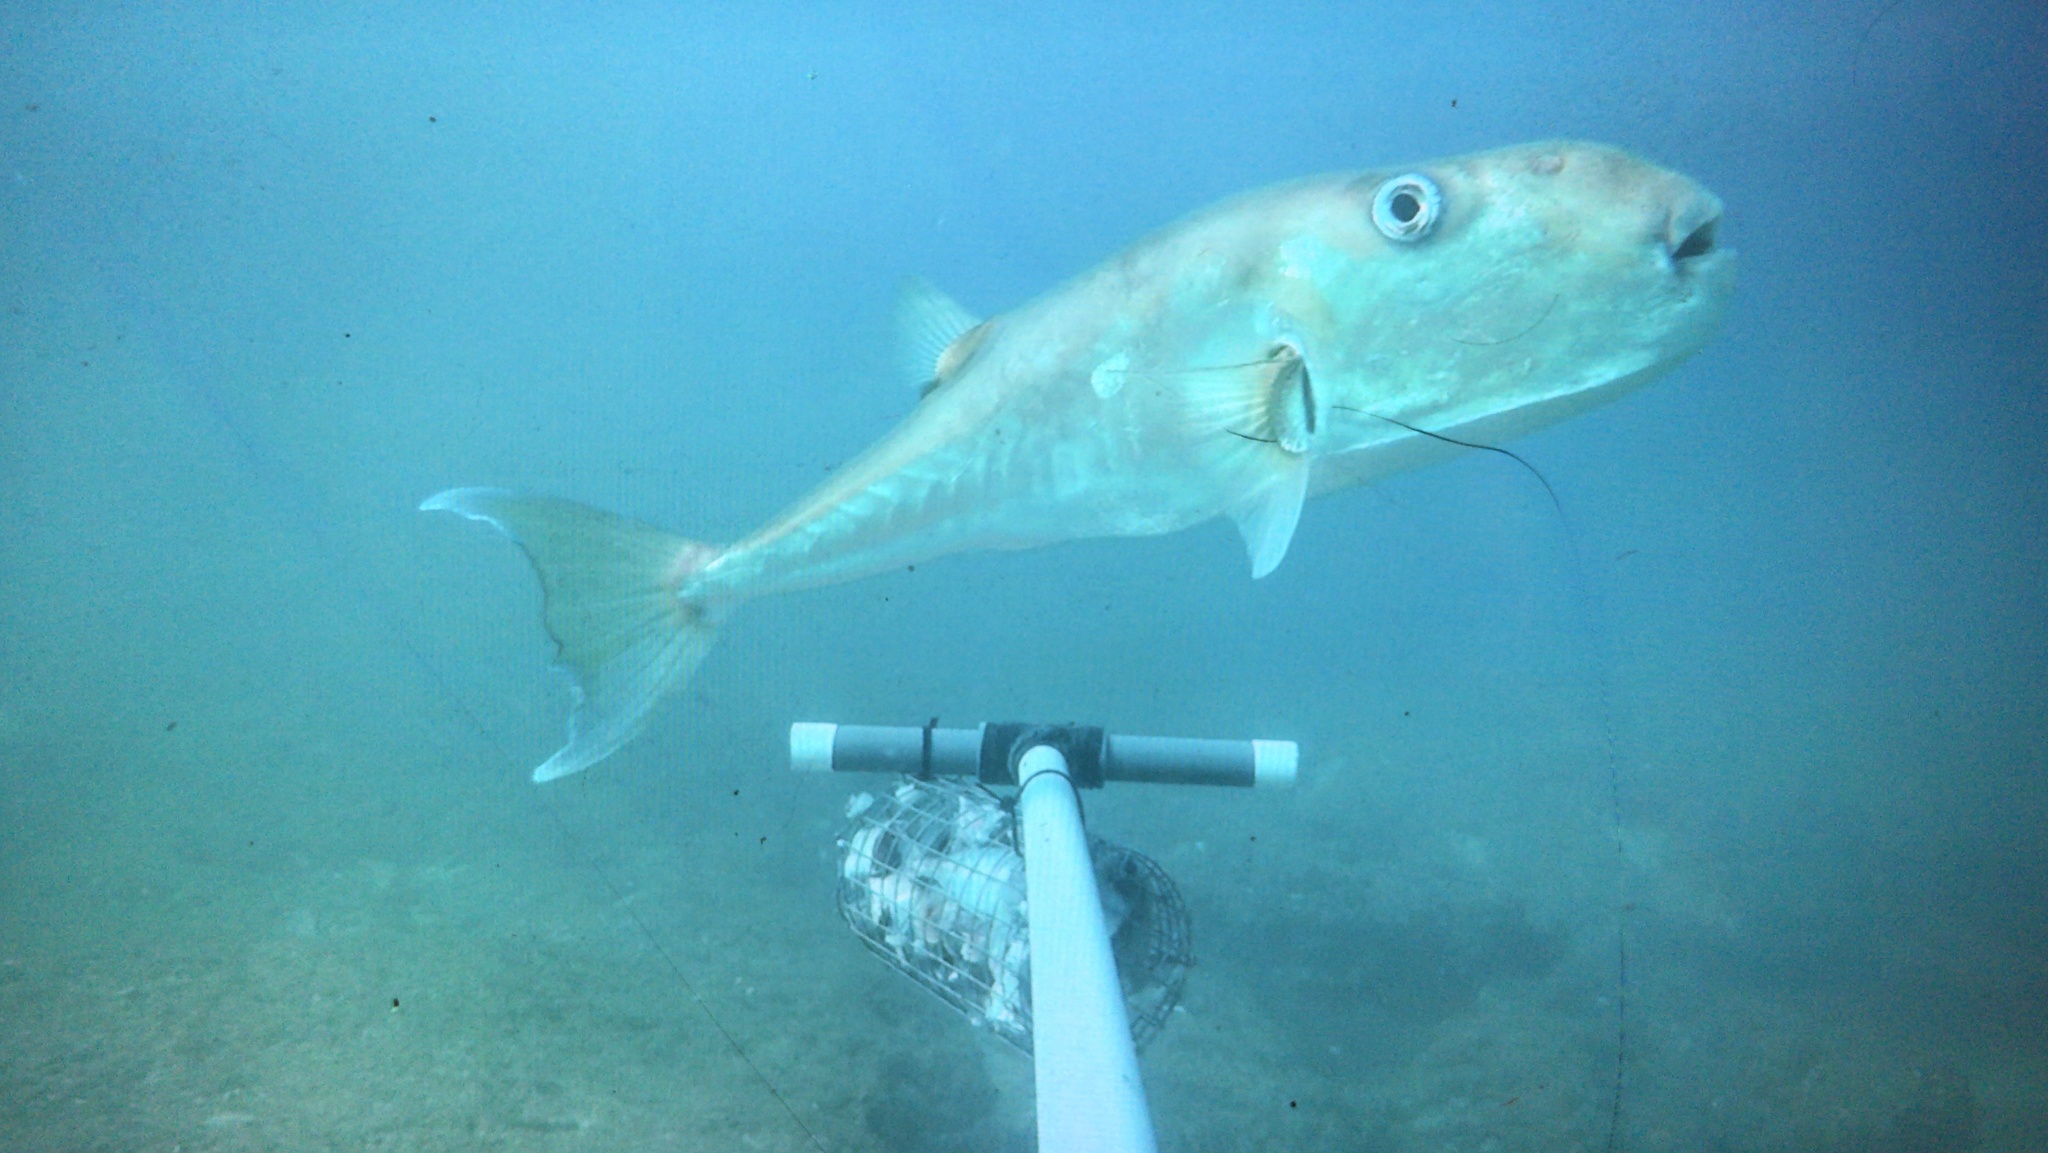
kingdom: Animalia
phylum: Chordata
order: Tetraodontiformes
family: Tetraodontidae
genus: Lagocephalus
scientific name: Lagocephalus guentheri
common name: Diamondback puffer
